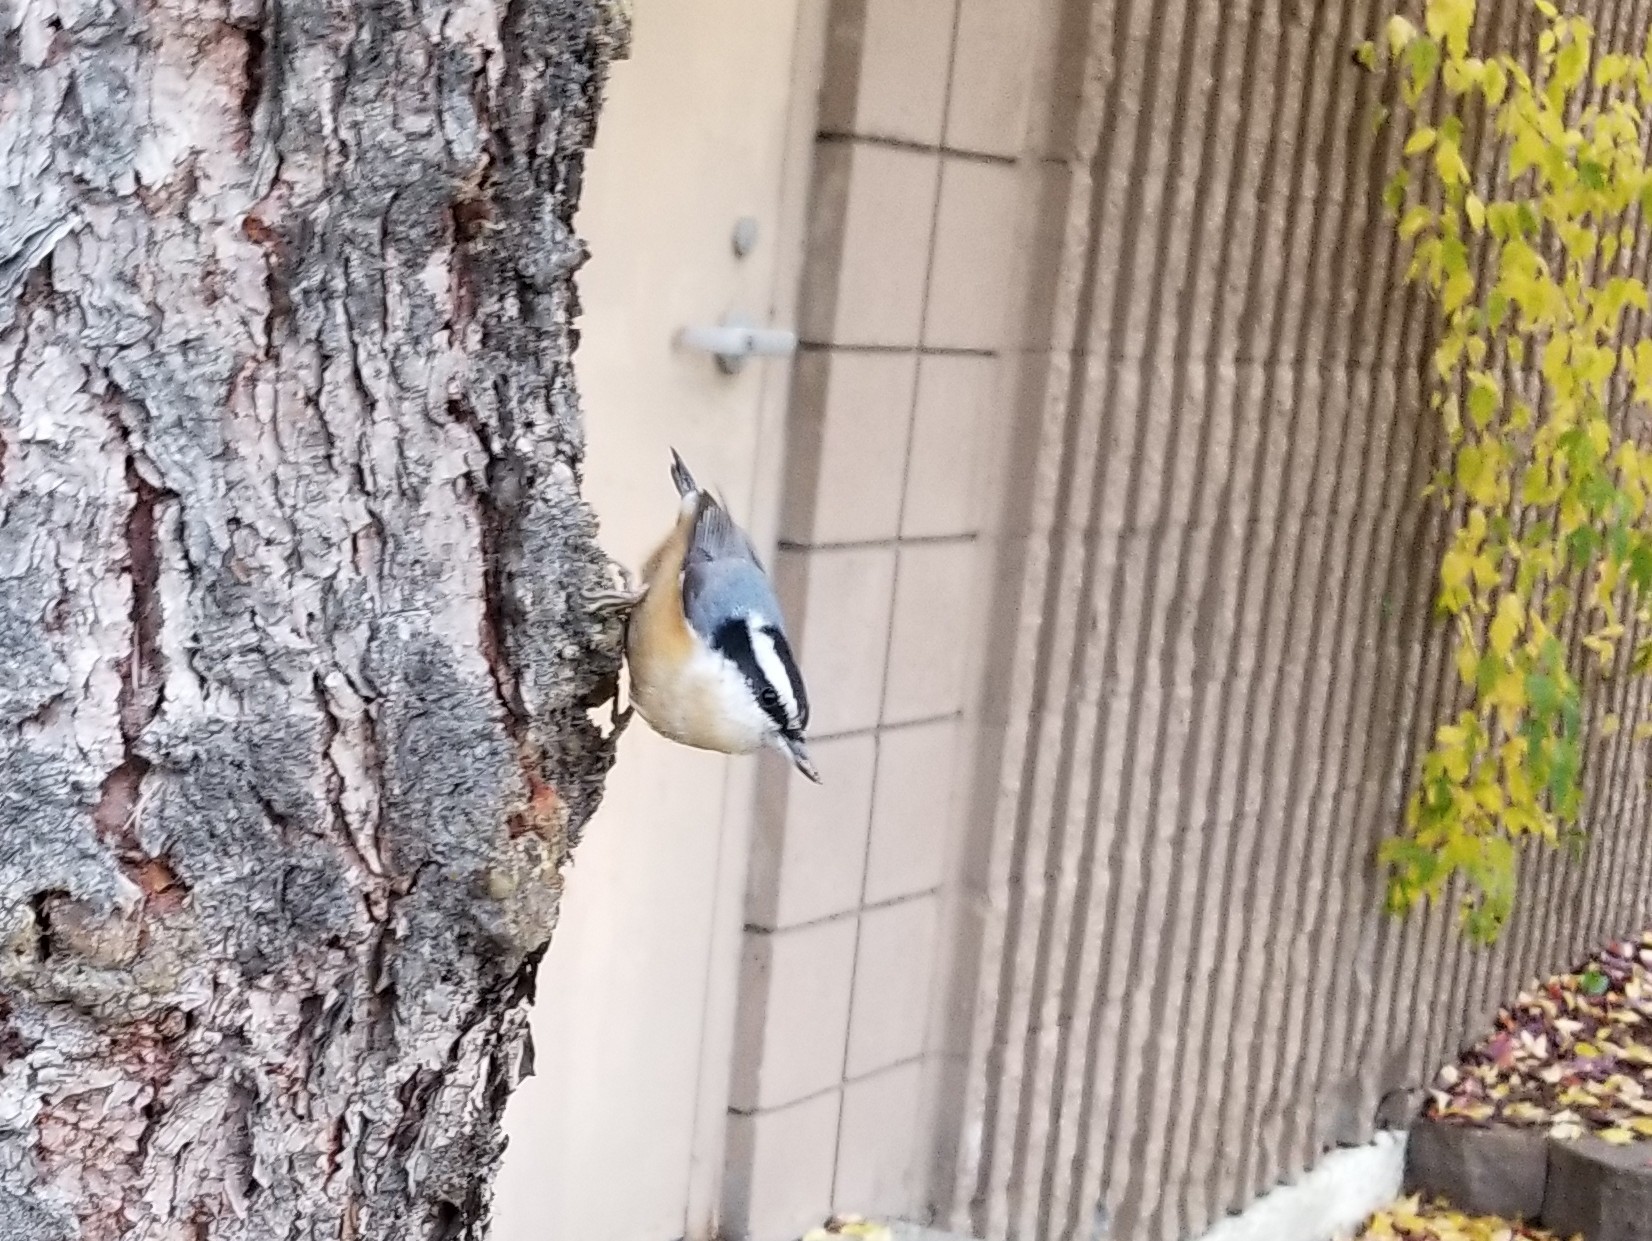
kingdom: Animalia
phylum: Chordata
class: Aves
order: Passeriformes
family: Sittidae
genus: Sitta
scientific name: Sitta canadensis
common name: Red-breasted nuthatch
